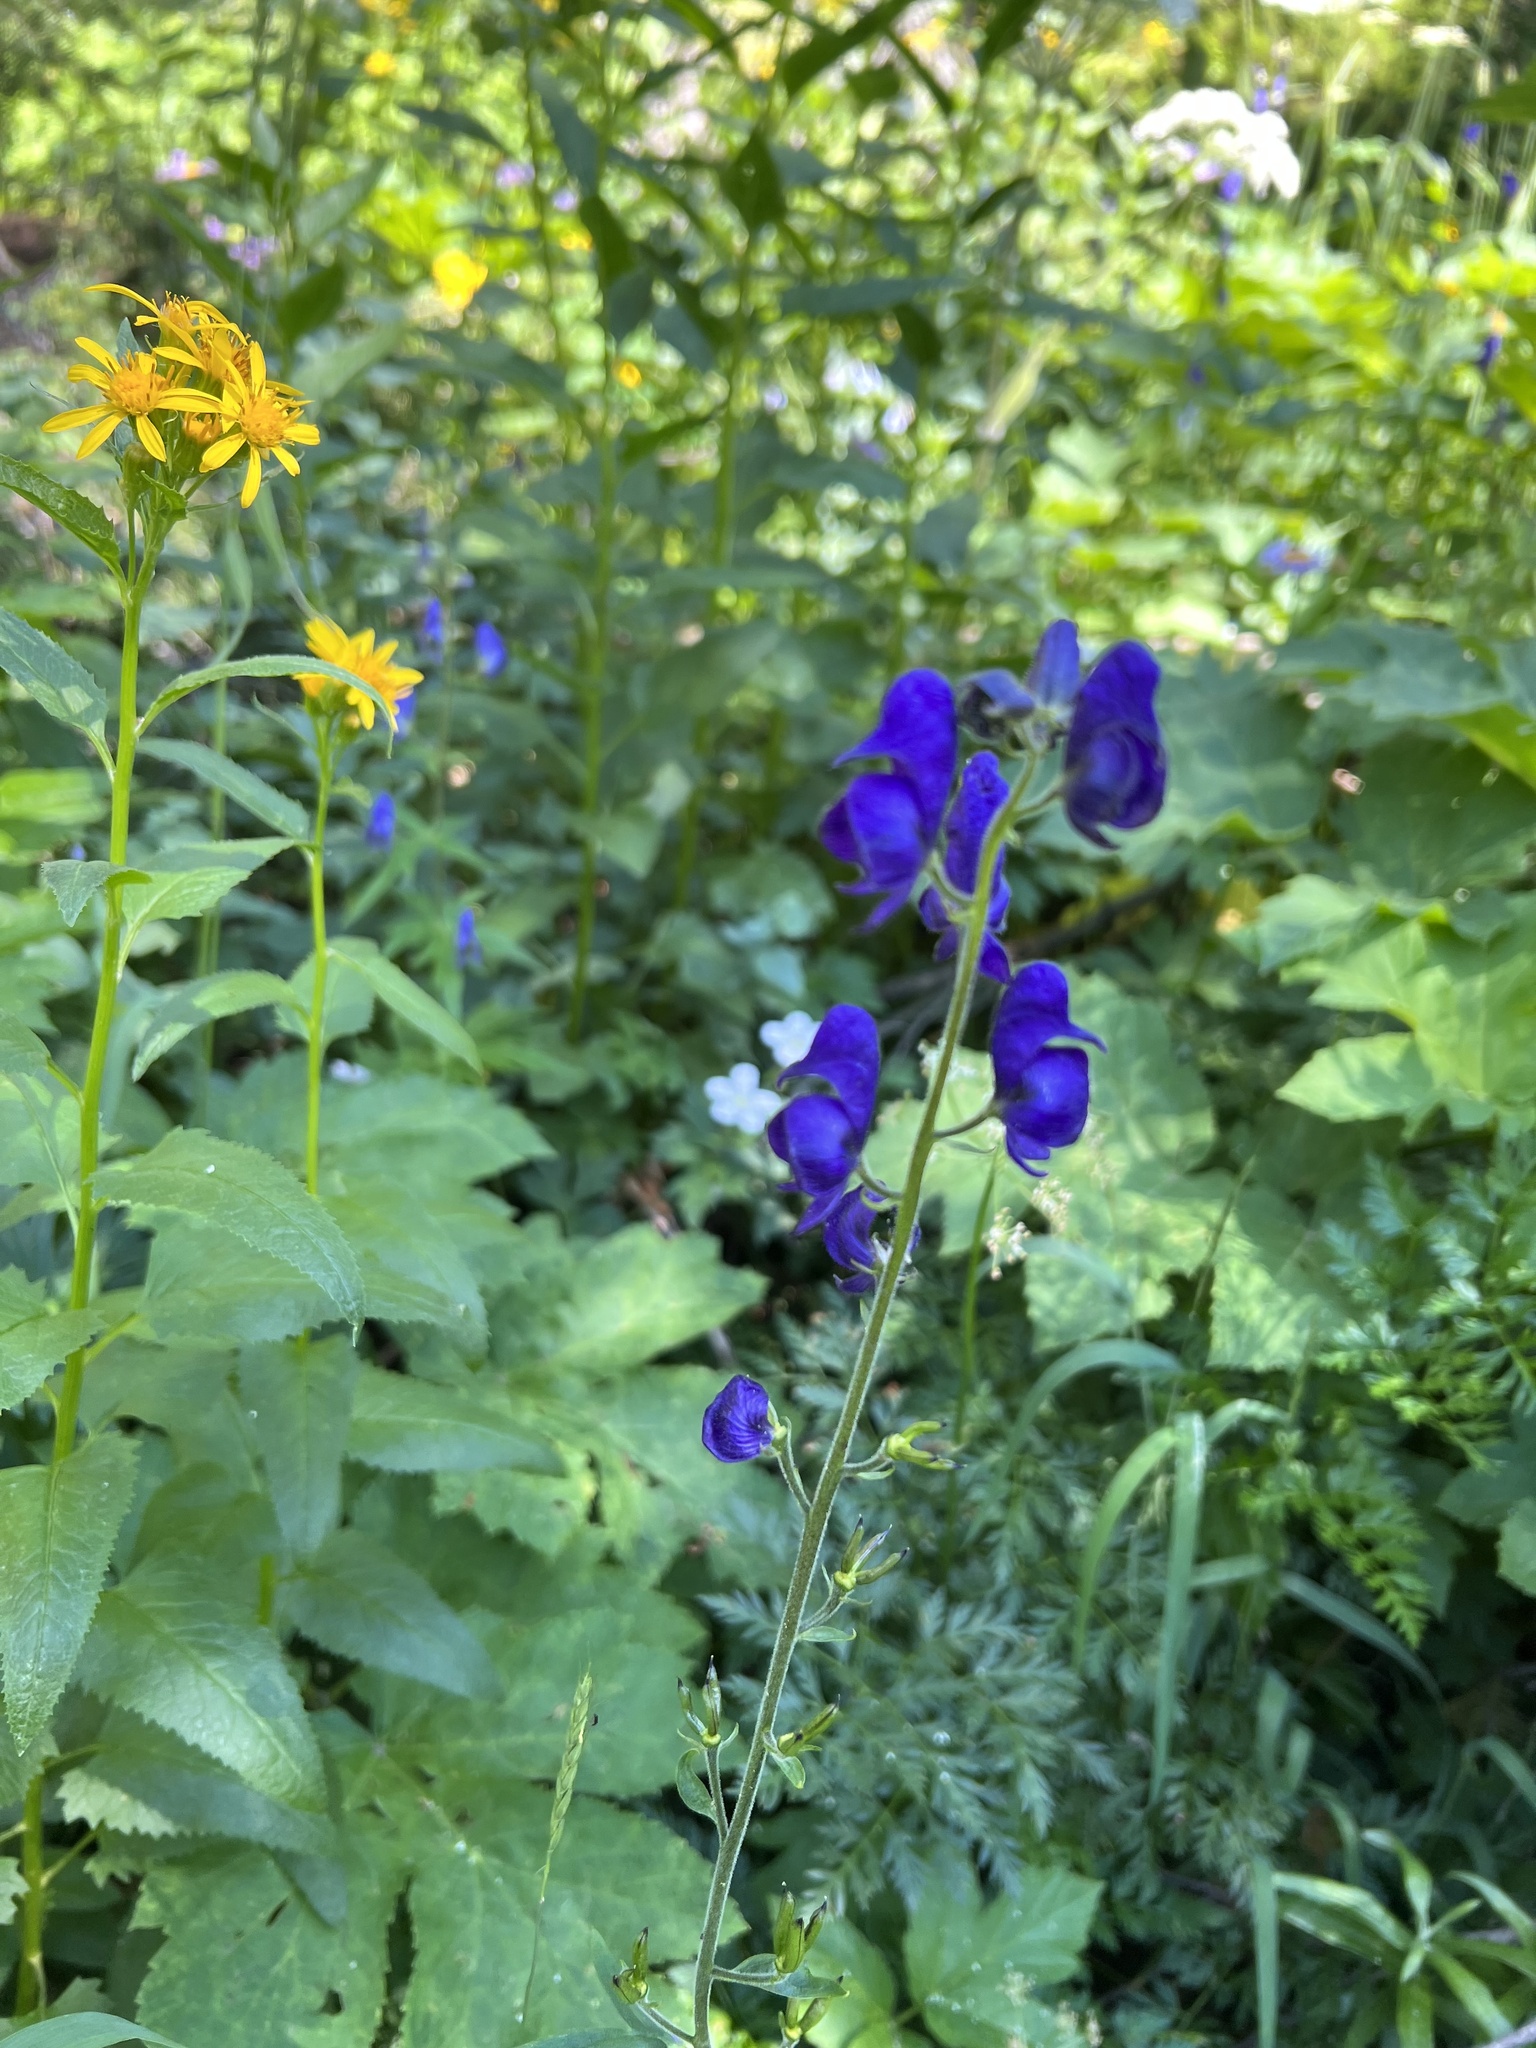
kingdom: Plantae
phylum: Tracheophyta
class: Magnoliopsida
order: Ranunculales
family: Ranunculaceae
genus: Aconitum
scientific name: Aconitum columbianum
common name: Columbia aconite
